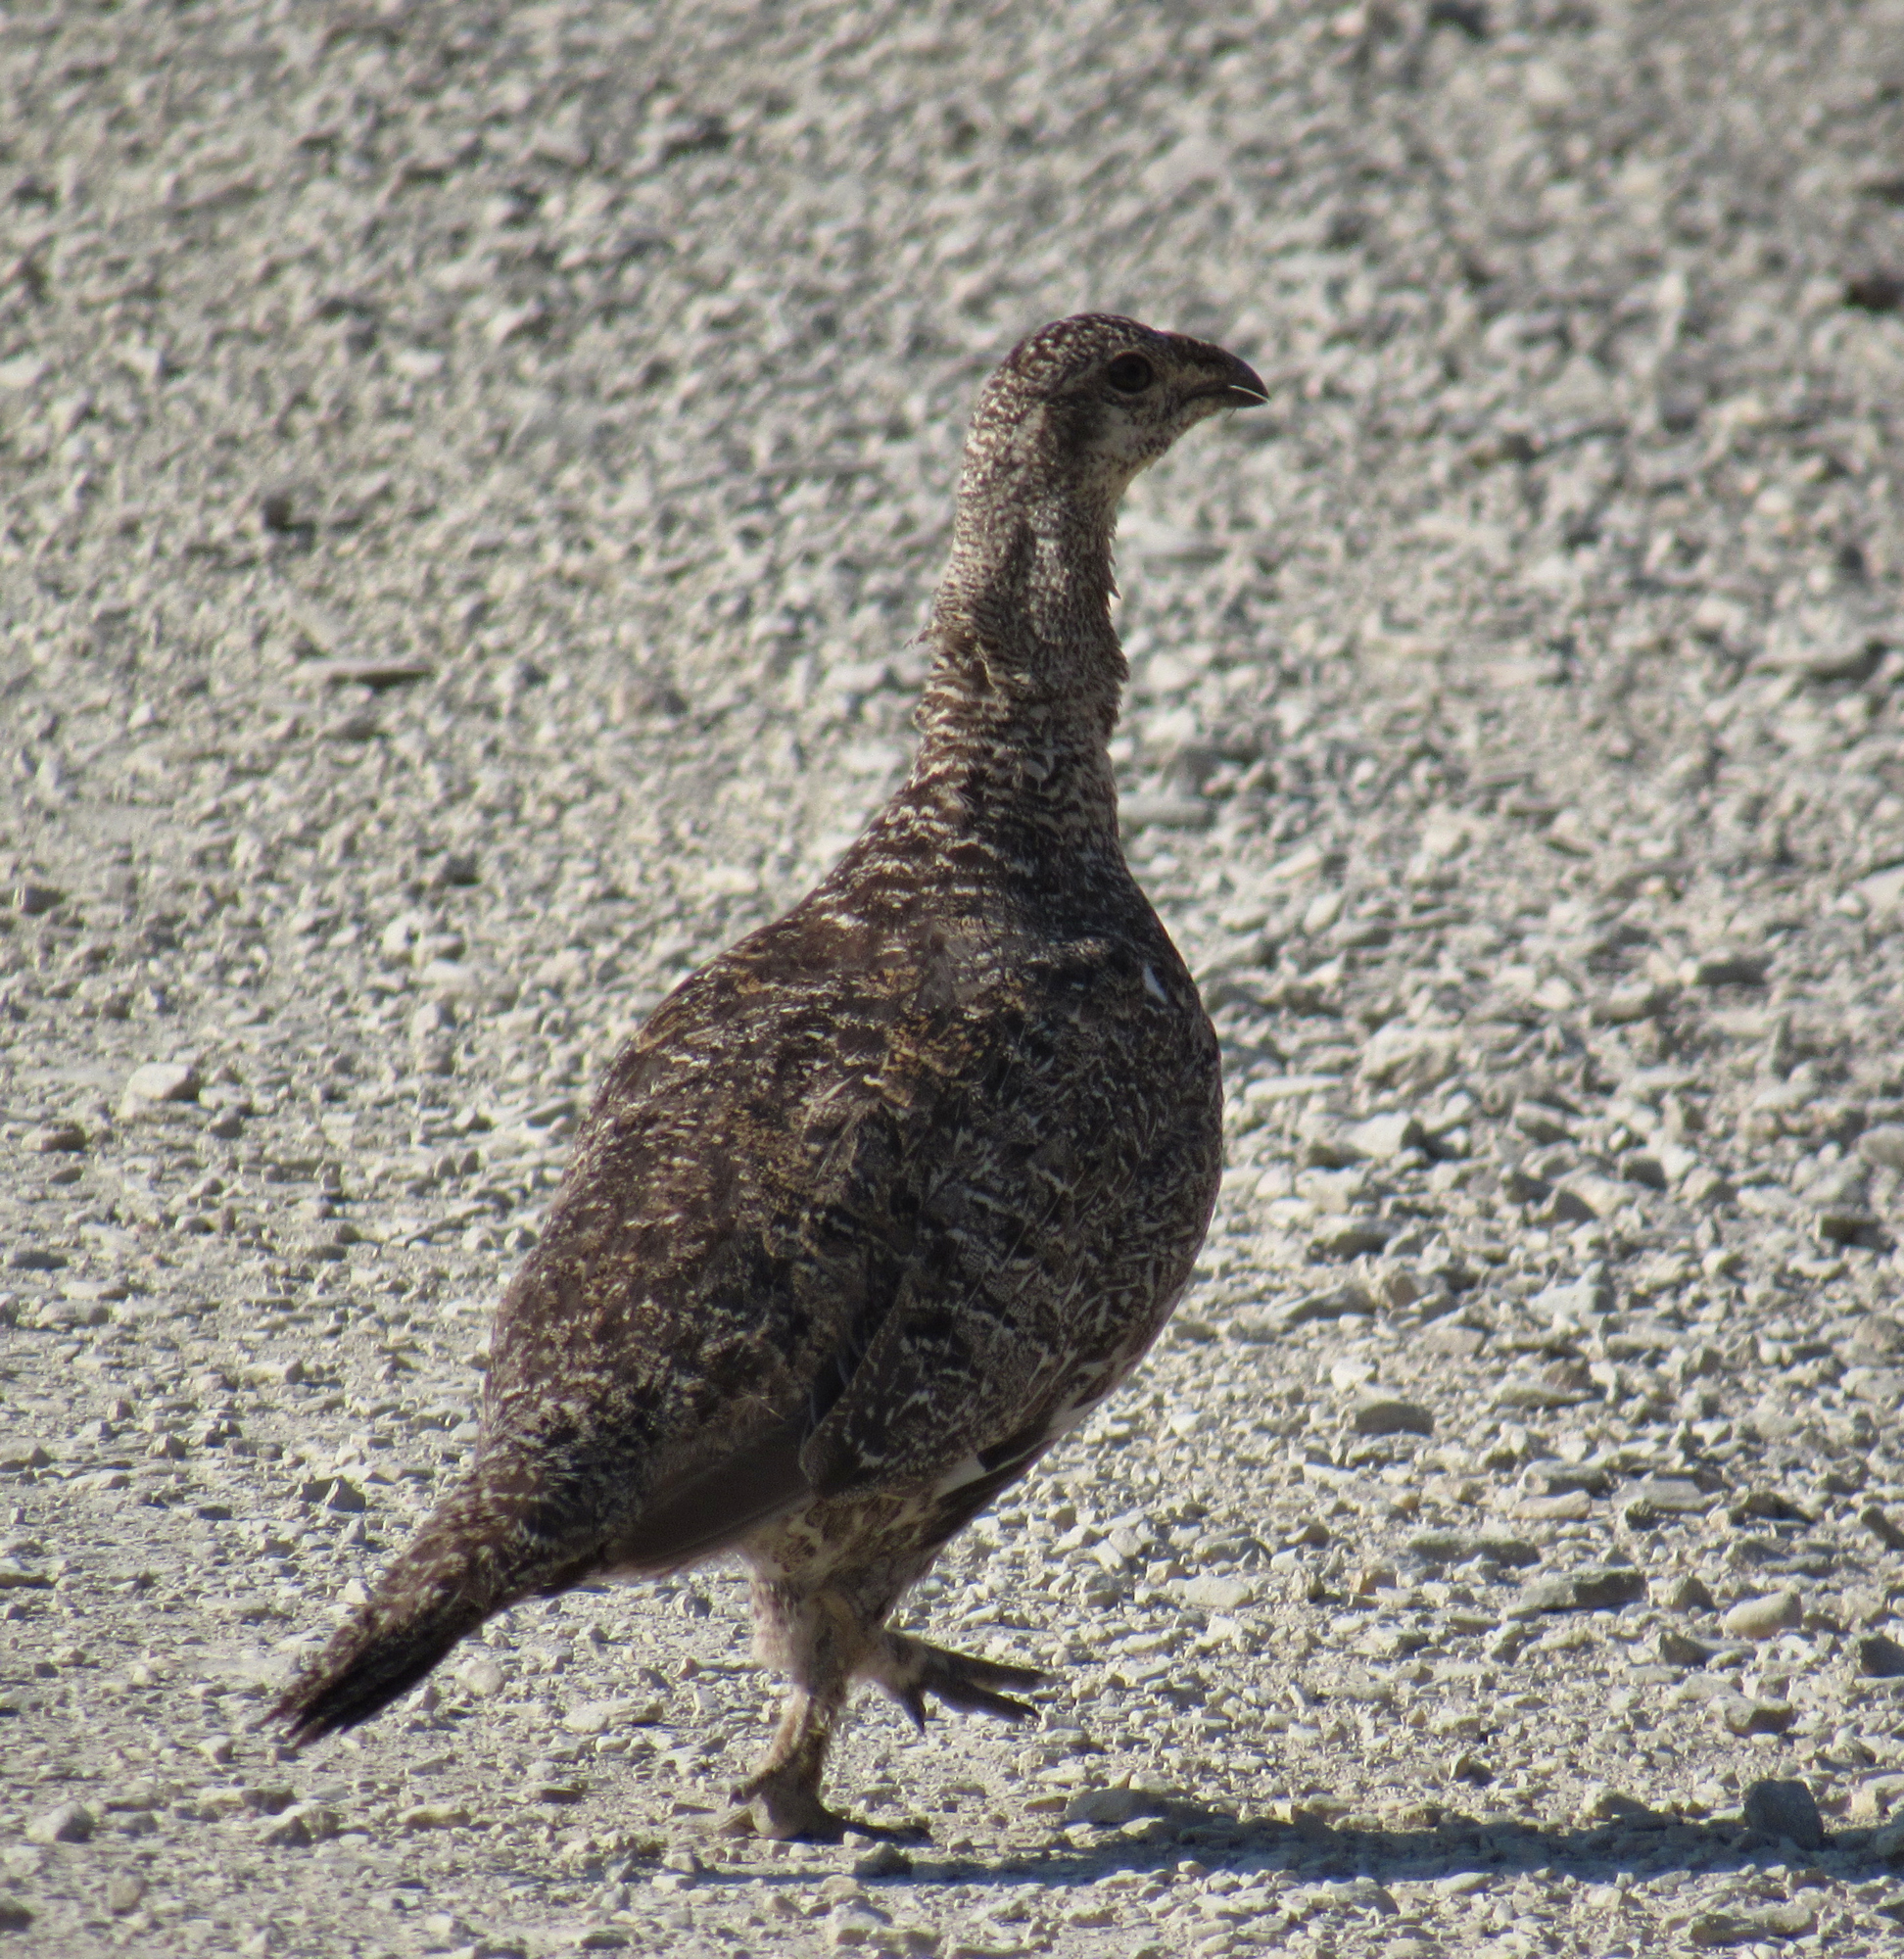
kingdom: Animalia
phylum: Chordata
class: Aves
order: Galliformes
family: Phasianidae
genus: Centrocercus
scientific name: Centrocercus urophasianus
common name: Sage grouse
